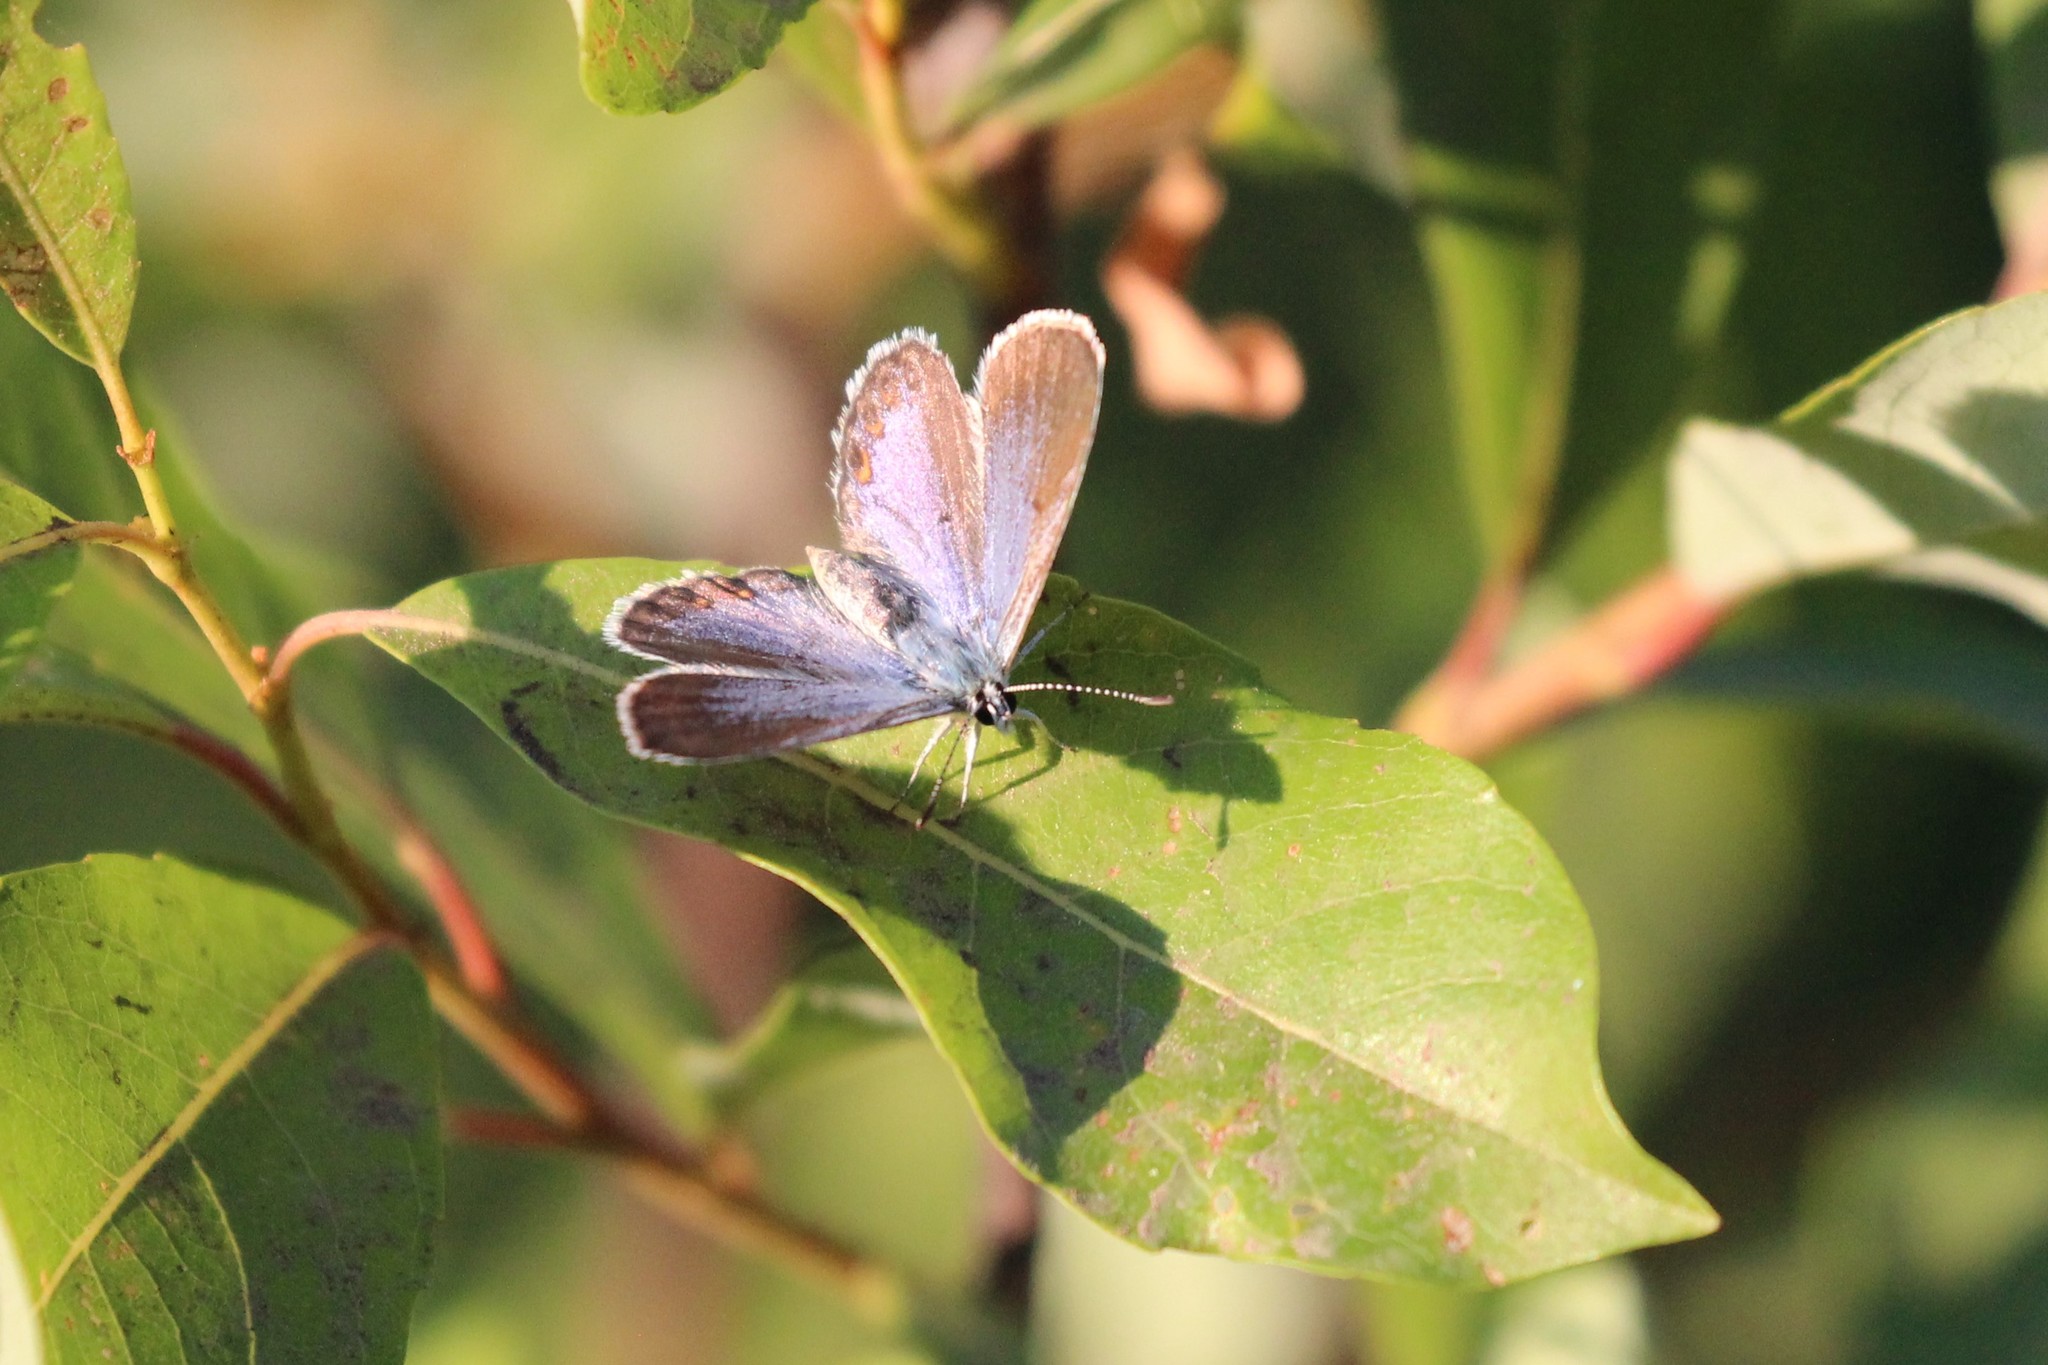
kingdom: Animalia
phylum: Arthropoda
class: Insecta
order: Lepidoptera
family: Lycaenidae
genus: Lycaeides
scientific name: Lycaeides idas
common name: Northern blue
